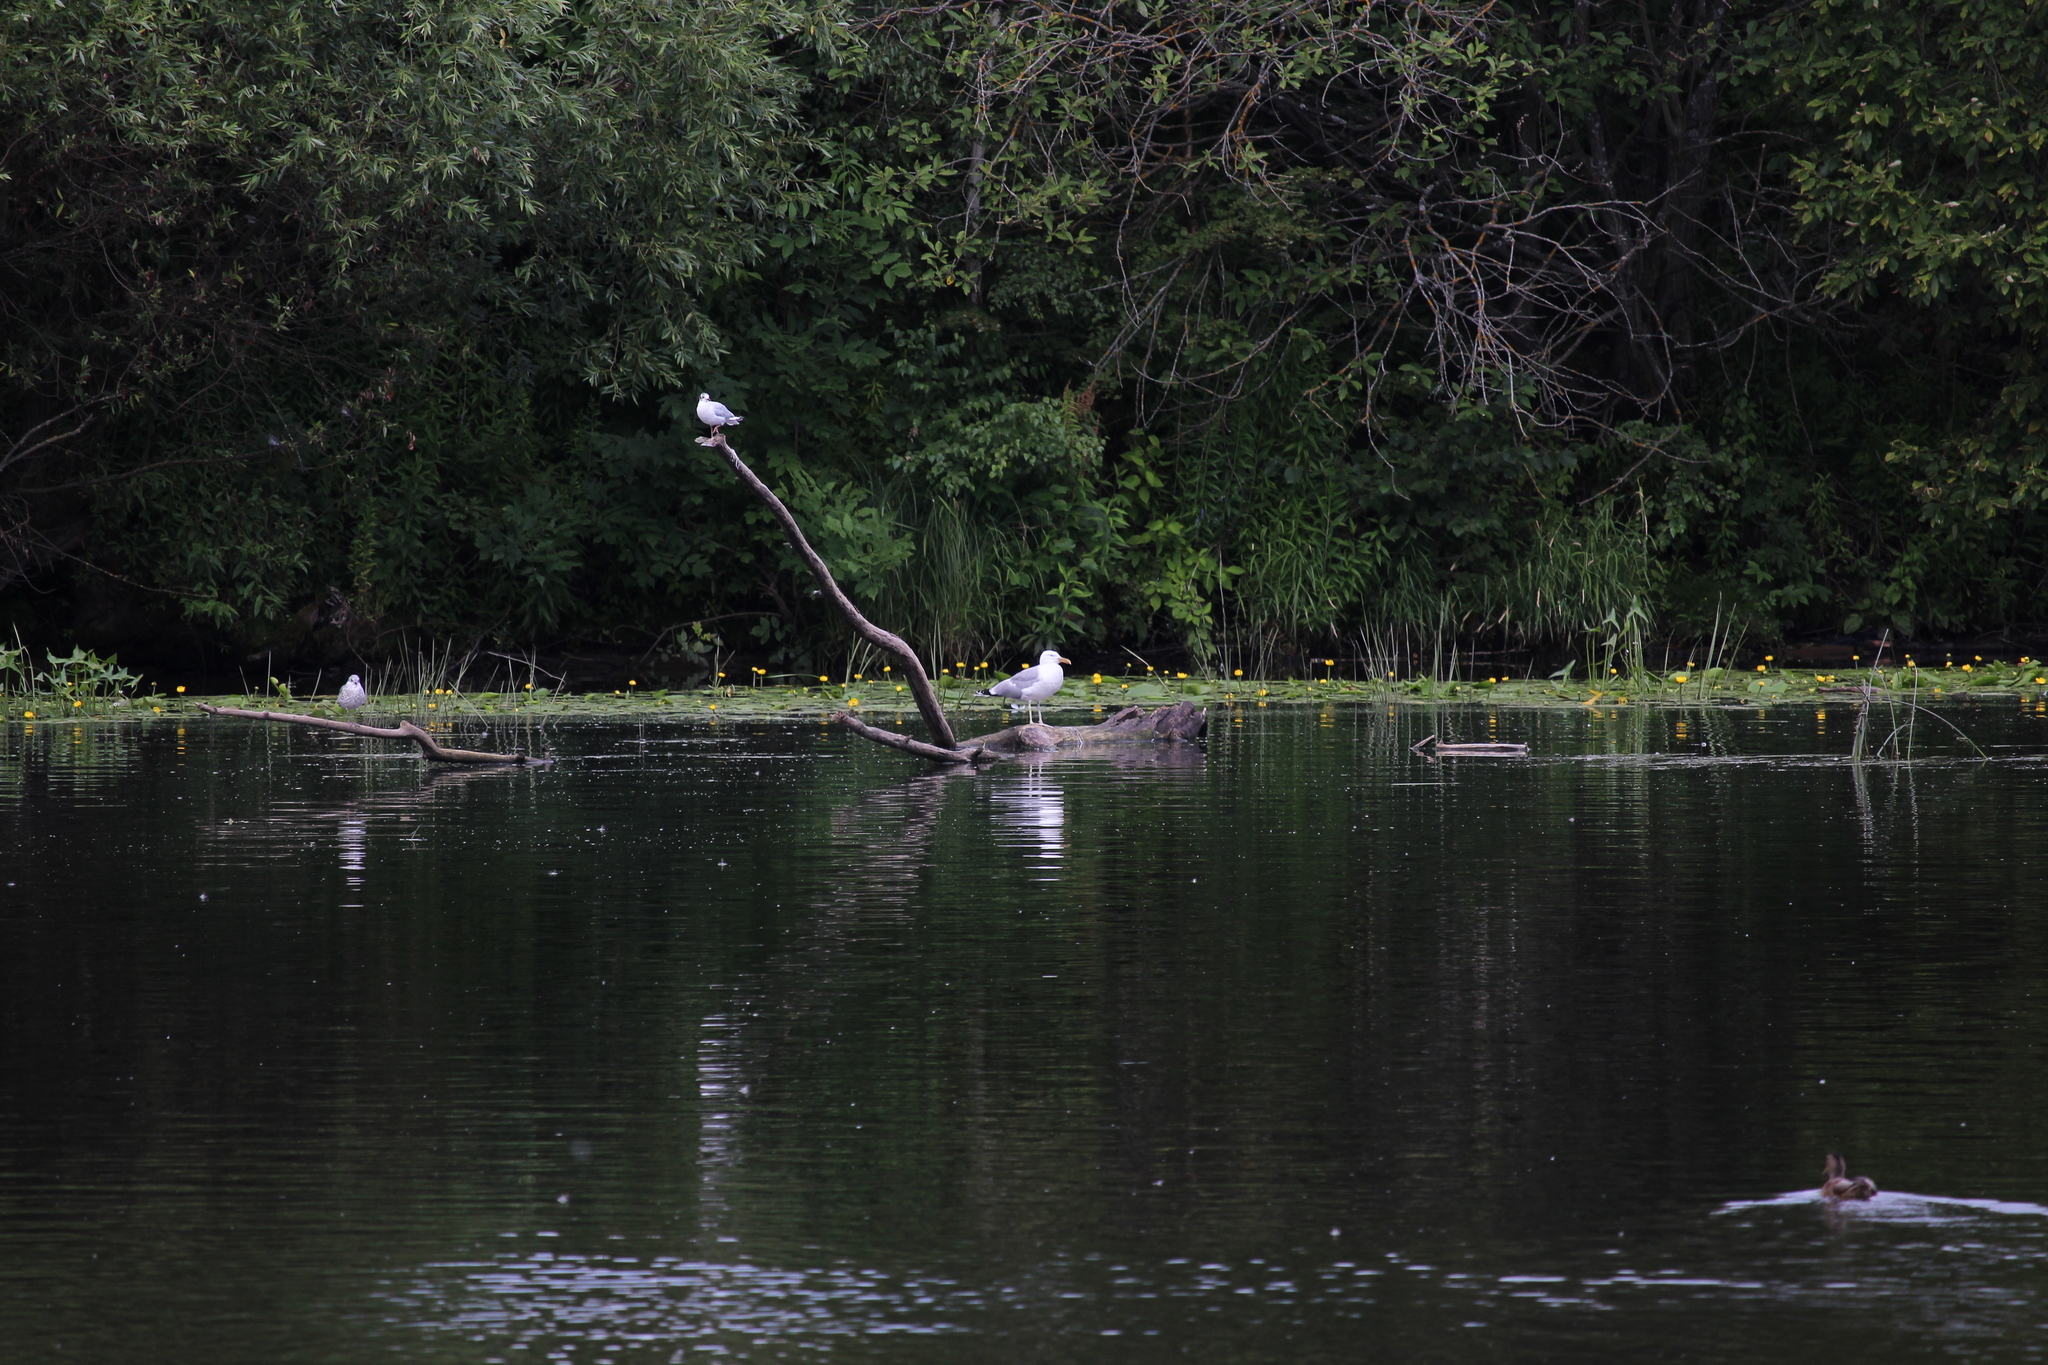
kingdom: Animalia
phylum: Chordata
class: Aves
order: Charadriiformes
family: Laridae
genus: Larus
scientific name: Larus cachinnans
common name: Caspian gull
